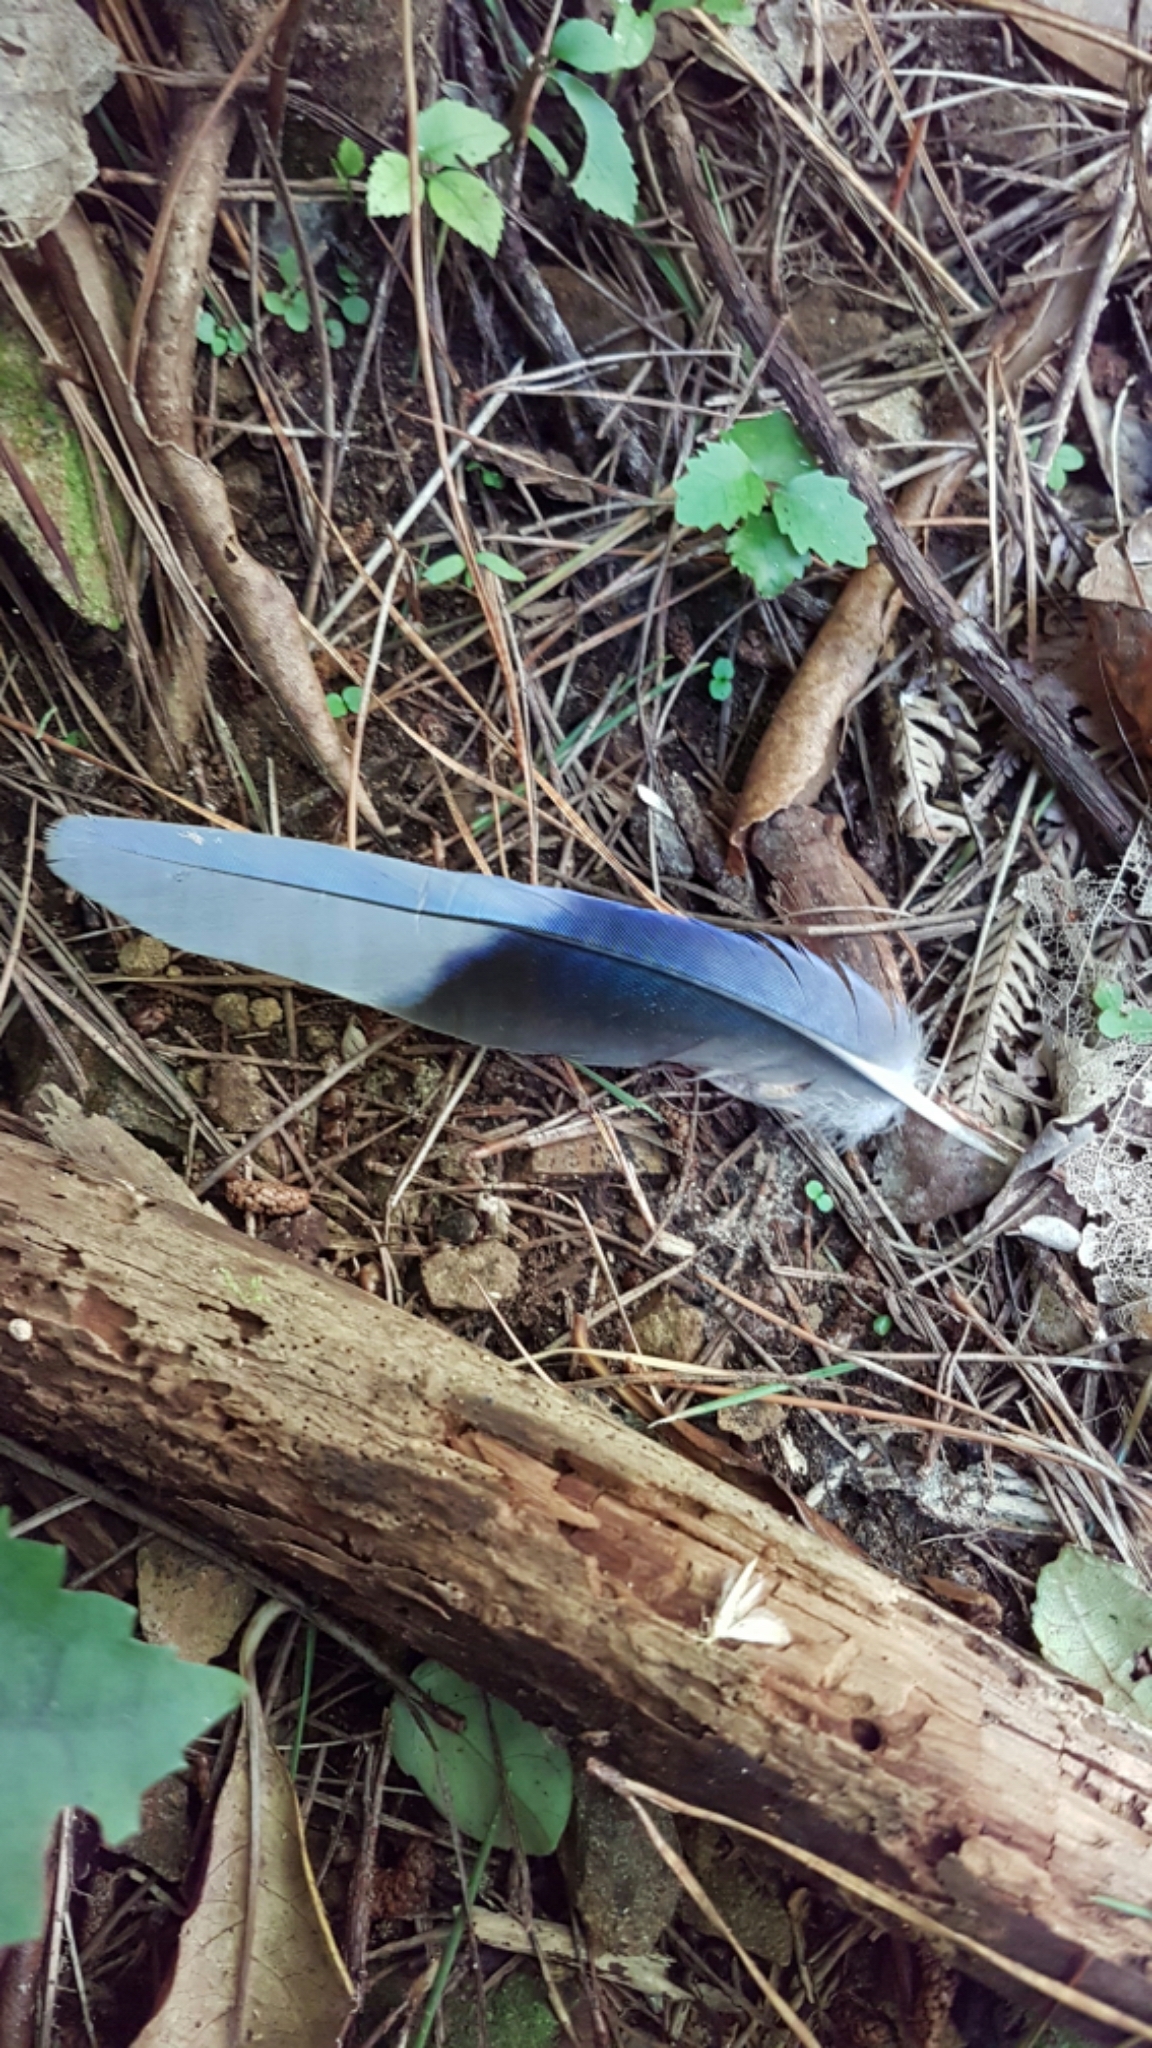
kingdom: Animalia
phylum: Chordata
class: Aves
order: Psittaciformes
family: Psittacidae
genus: Platycercus
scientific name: Platycercus eximius
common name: Eastern rosella
